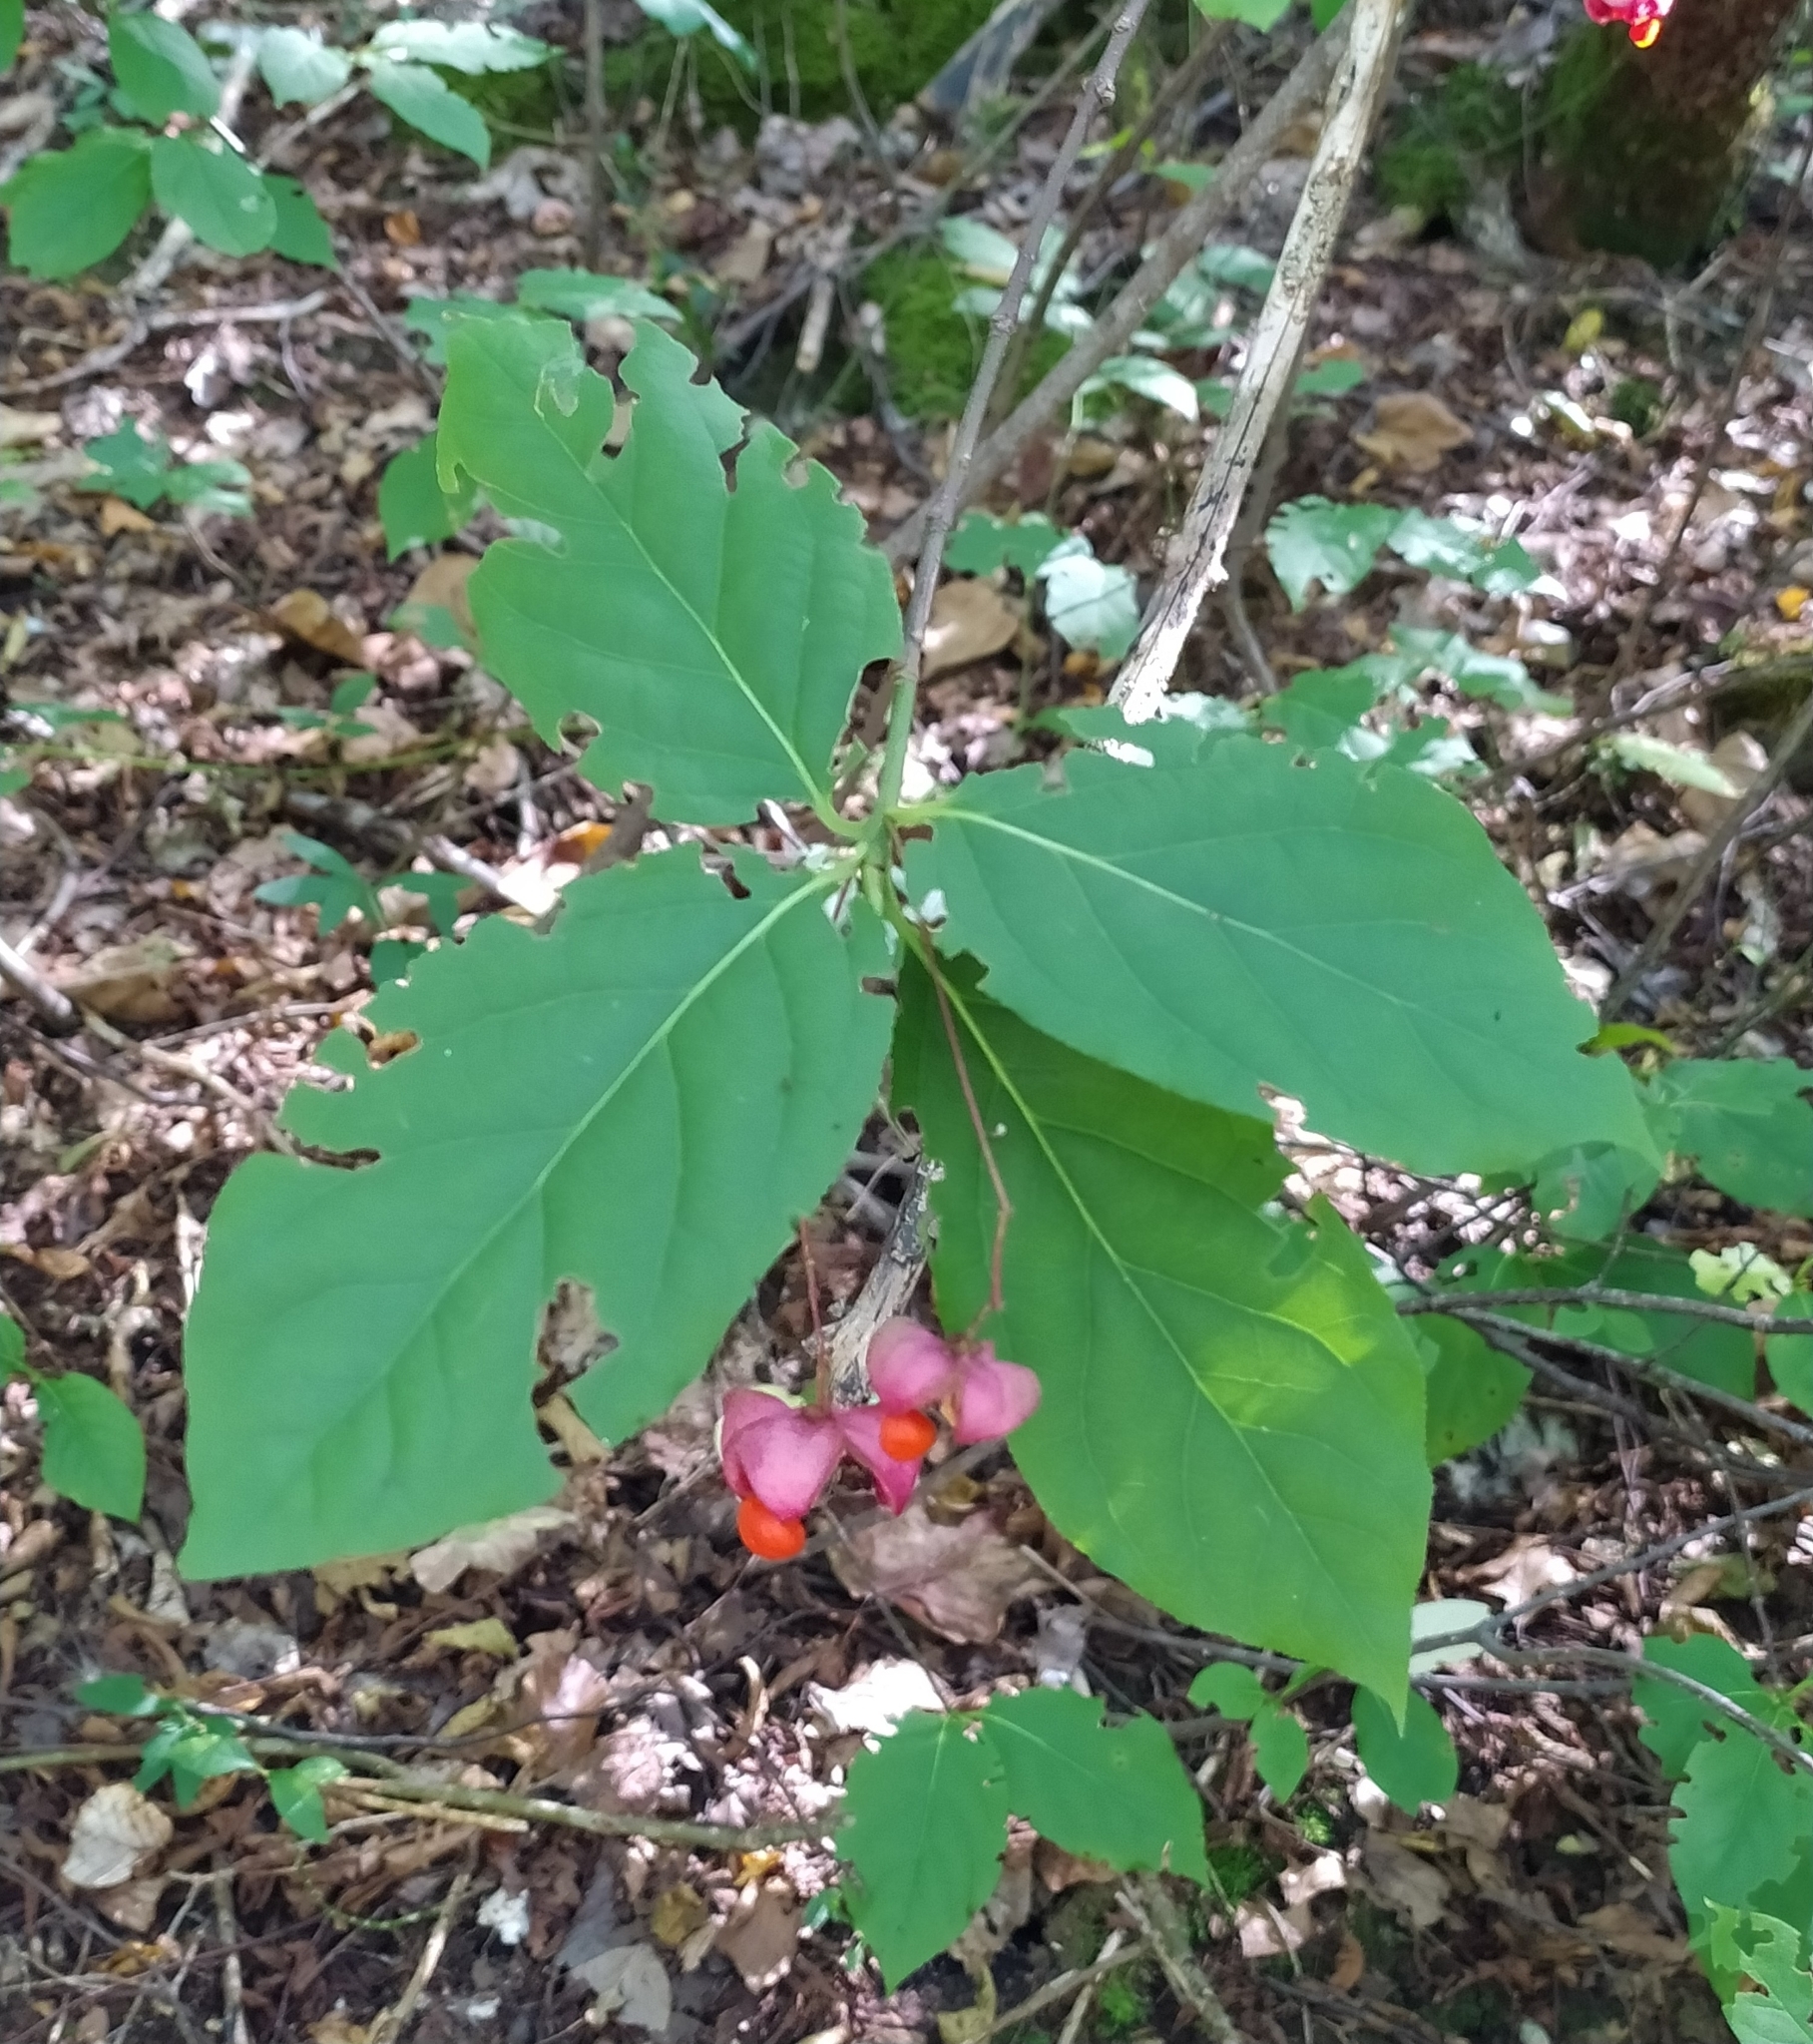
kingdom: Plantae
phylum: Tracheophyta
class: Magnoliopsida
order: Celastrales
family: Celastraceae
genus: Euonymus
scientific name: Euonymus latifolius
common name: Large-leaved spindle
